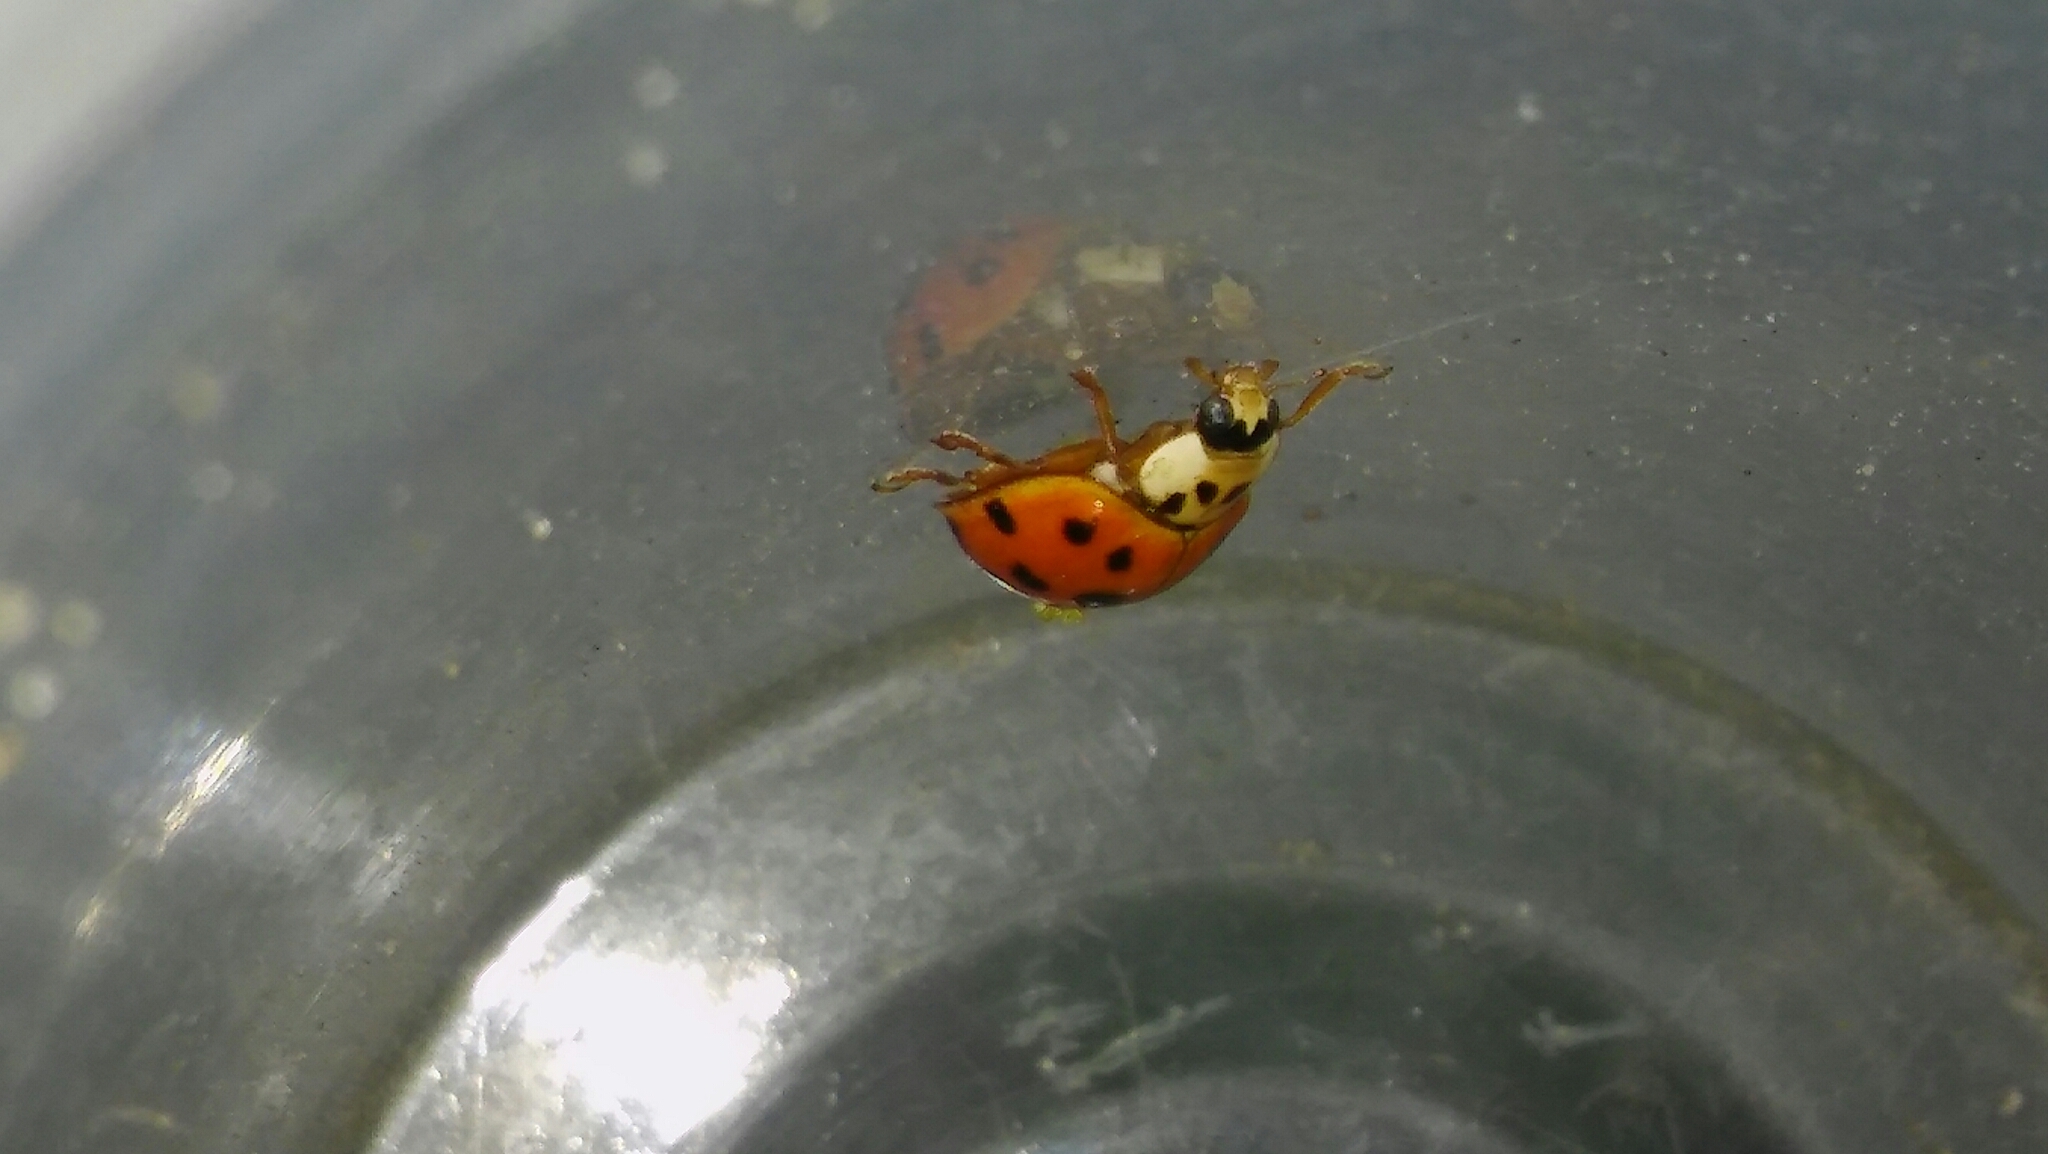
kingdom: Animalia
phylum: Arthropoda
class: Insecta
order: Coleoptera
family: Coccinellidae
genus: Harmonia
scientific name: Harmonia axyridis
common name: Harlequin ladybird
